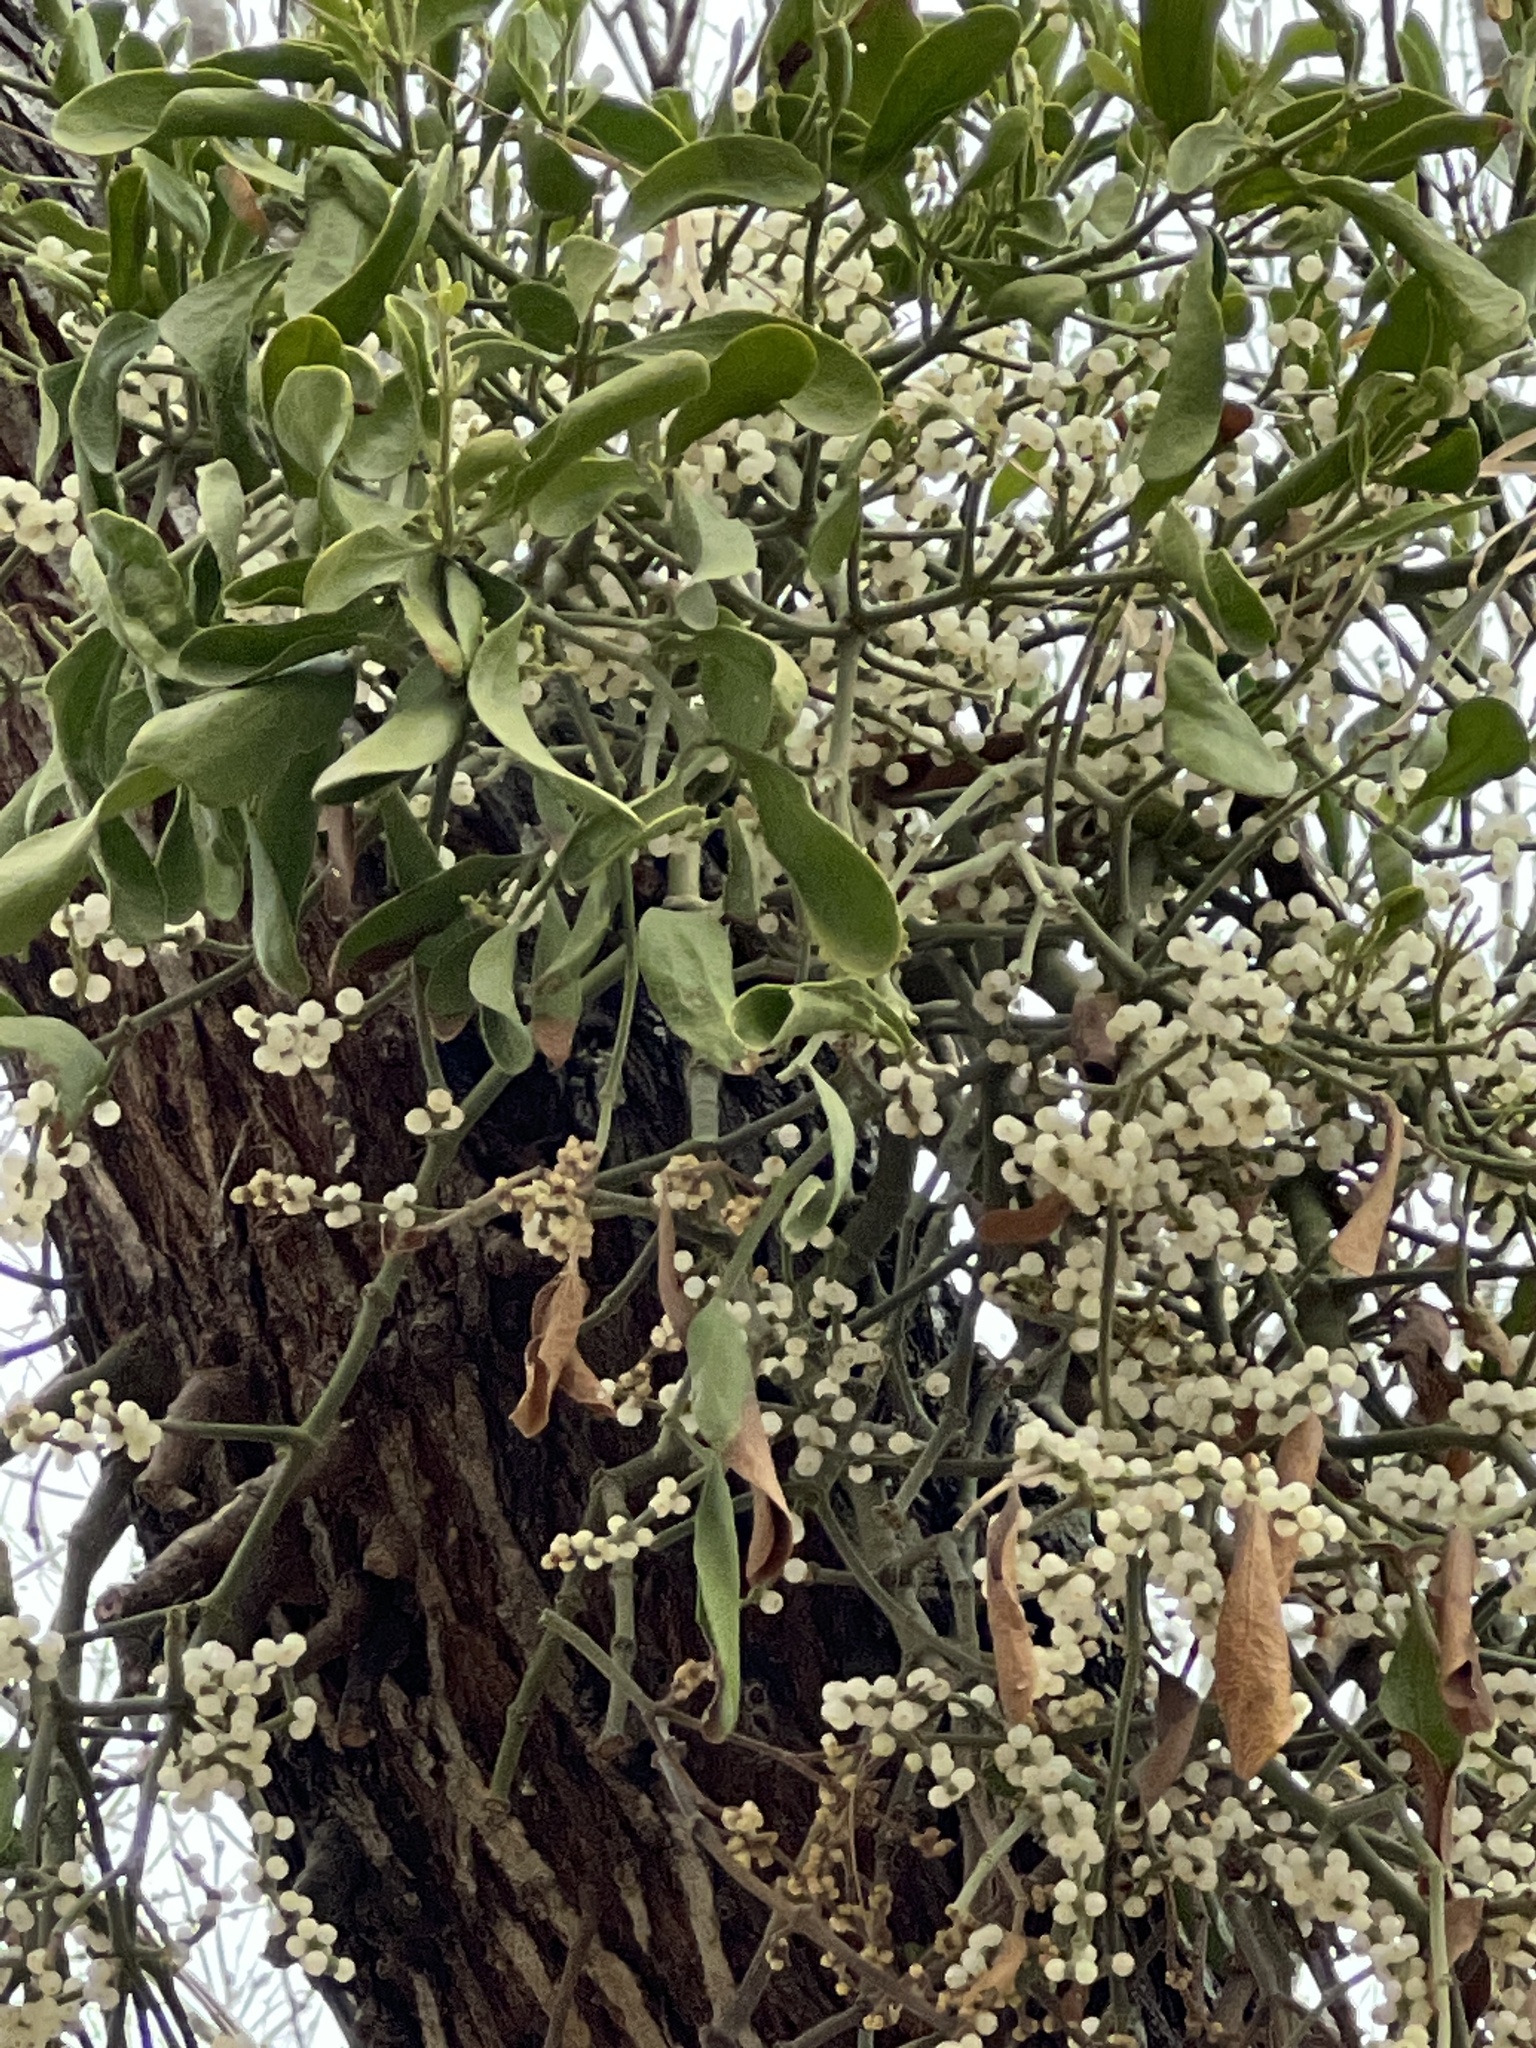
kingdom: Plantae
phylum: Tracheophyta
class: Magnoliopsida
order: Santalales
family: Viscaceae
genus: Phoradendron
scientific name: Phoradendron leucarpum
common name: Pacific mistletoe
